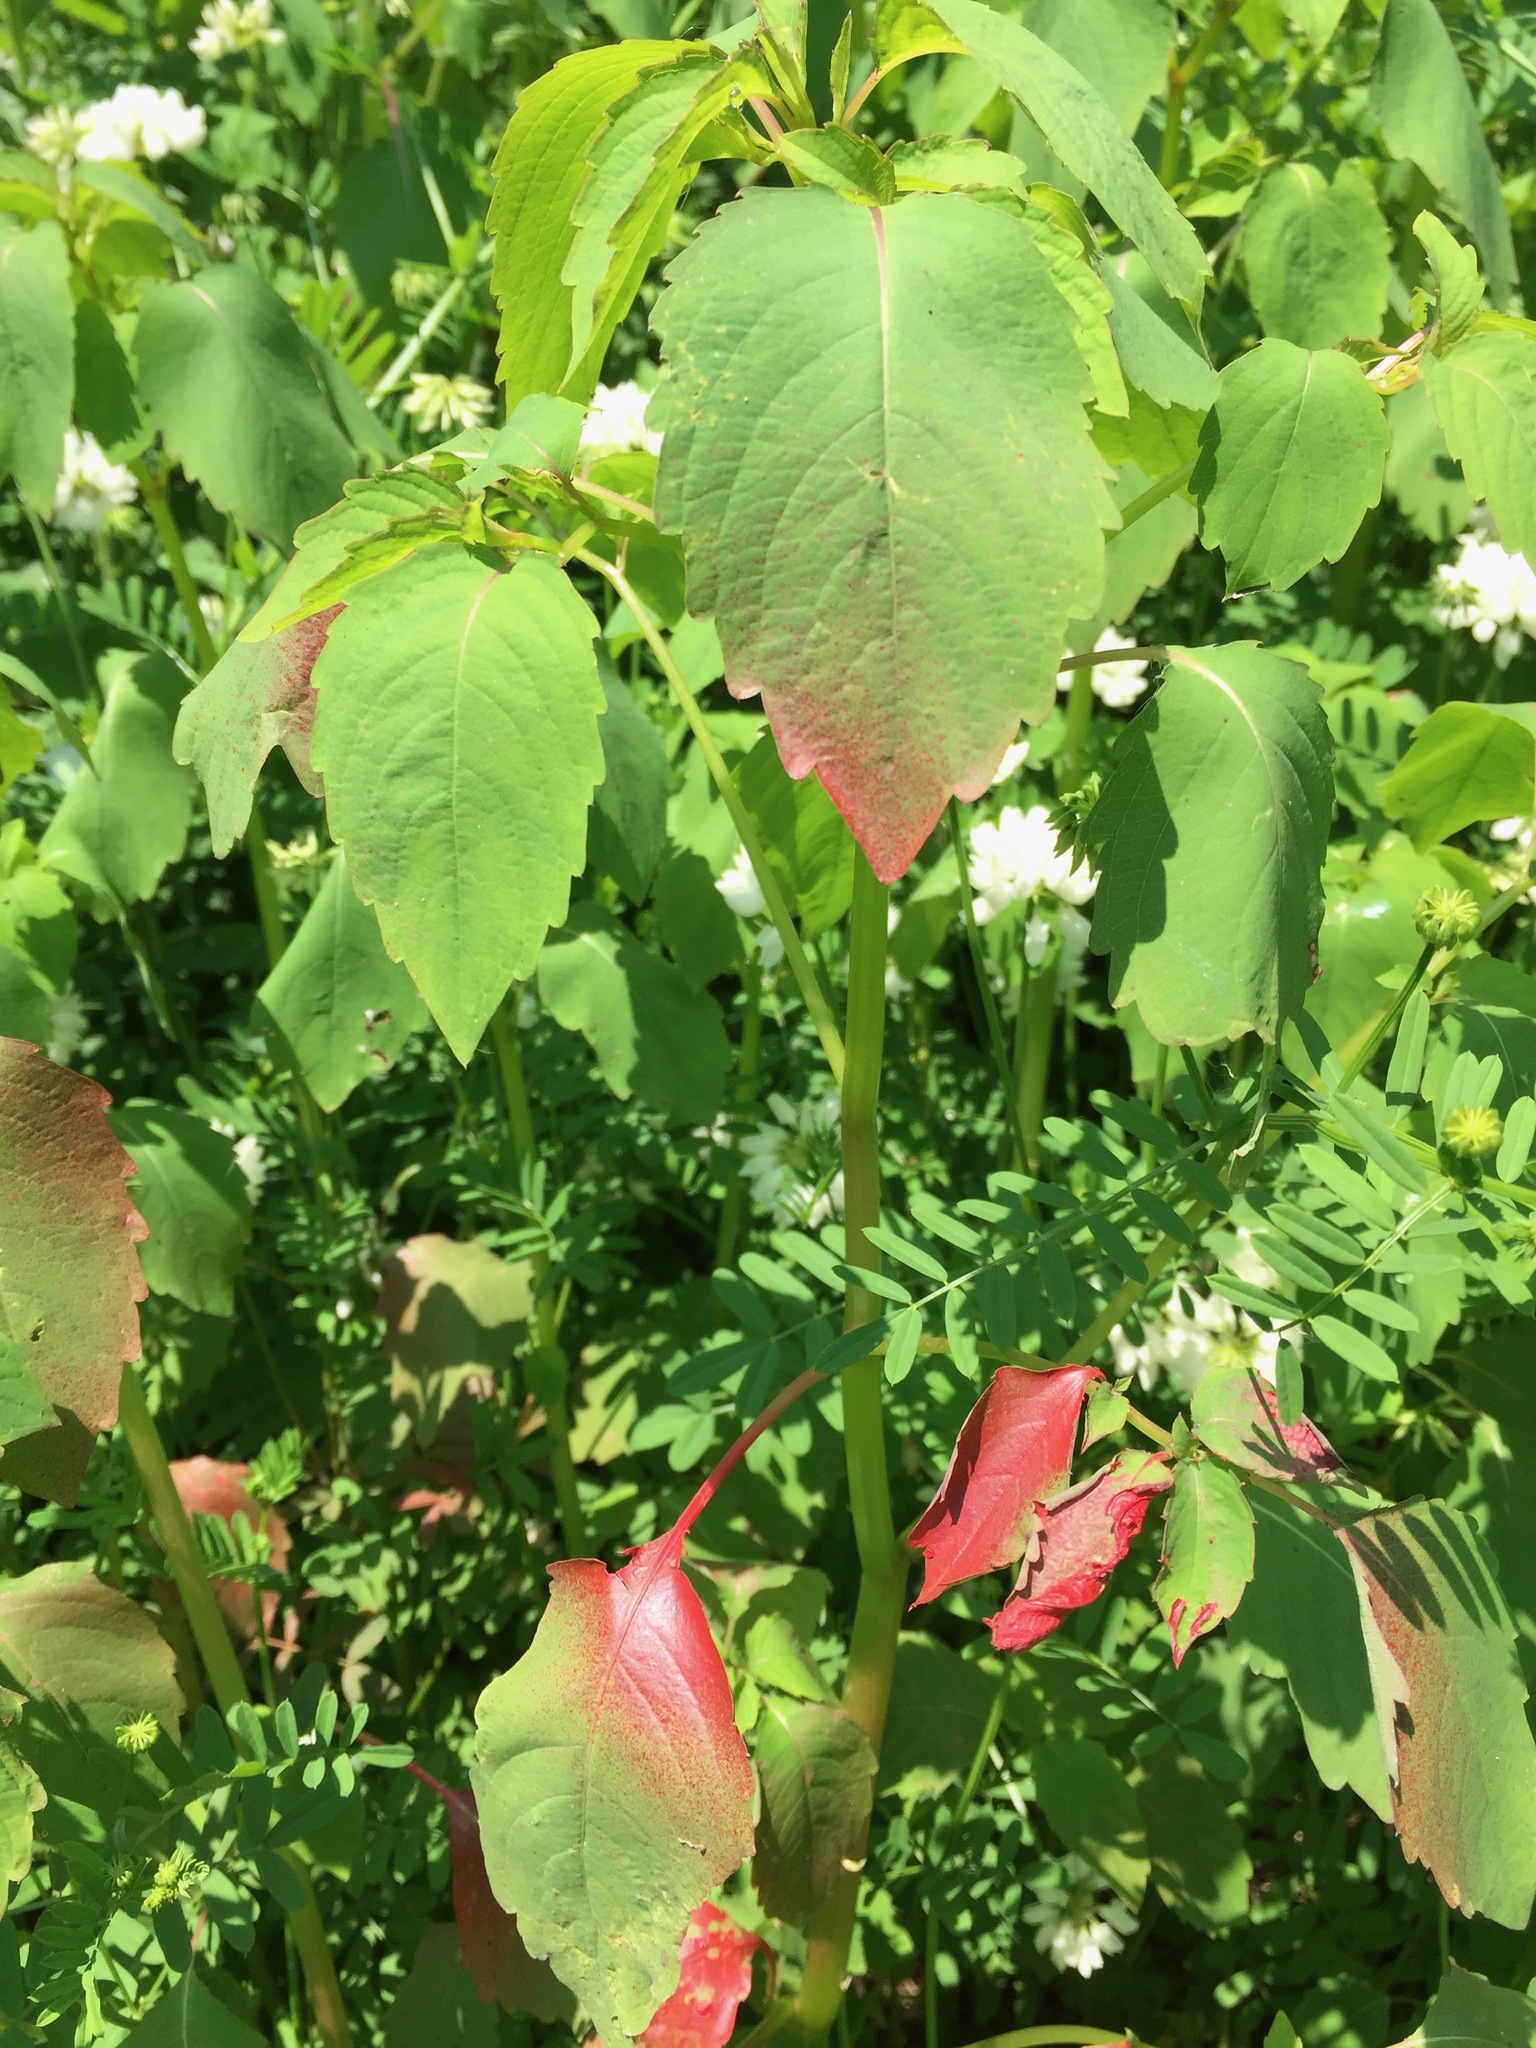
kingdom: Plantae
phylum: Tracheophyta
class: Magnoliopsida
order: Ericales
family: Balsaminaceae
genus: Impatiens
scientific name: Impatiens
